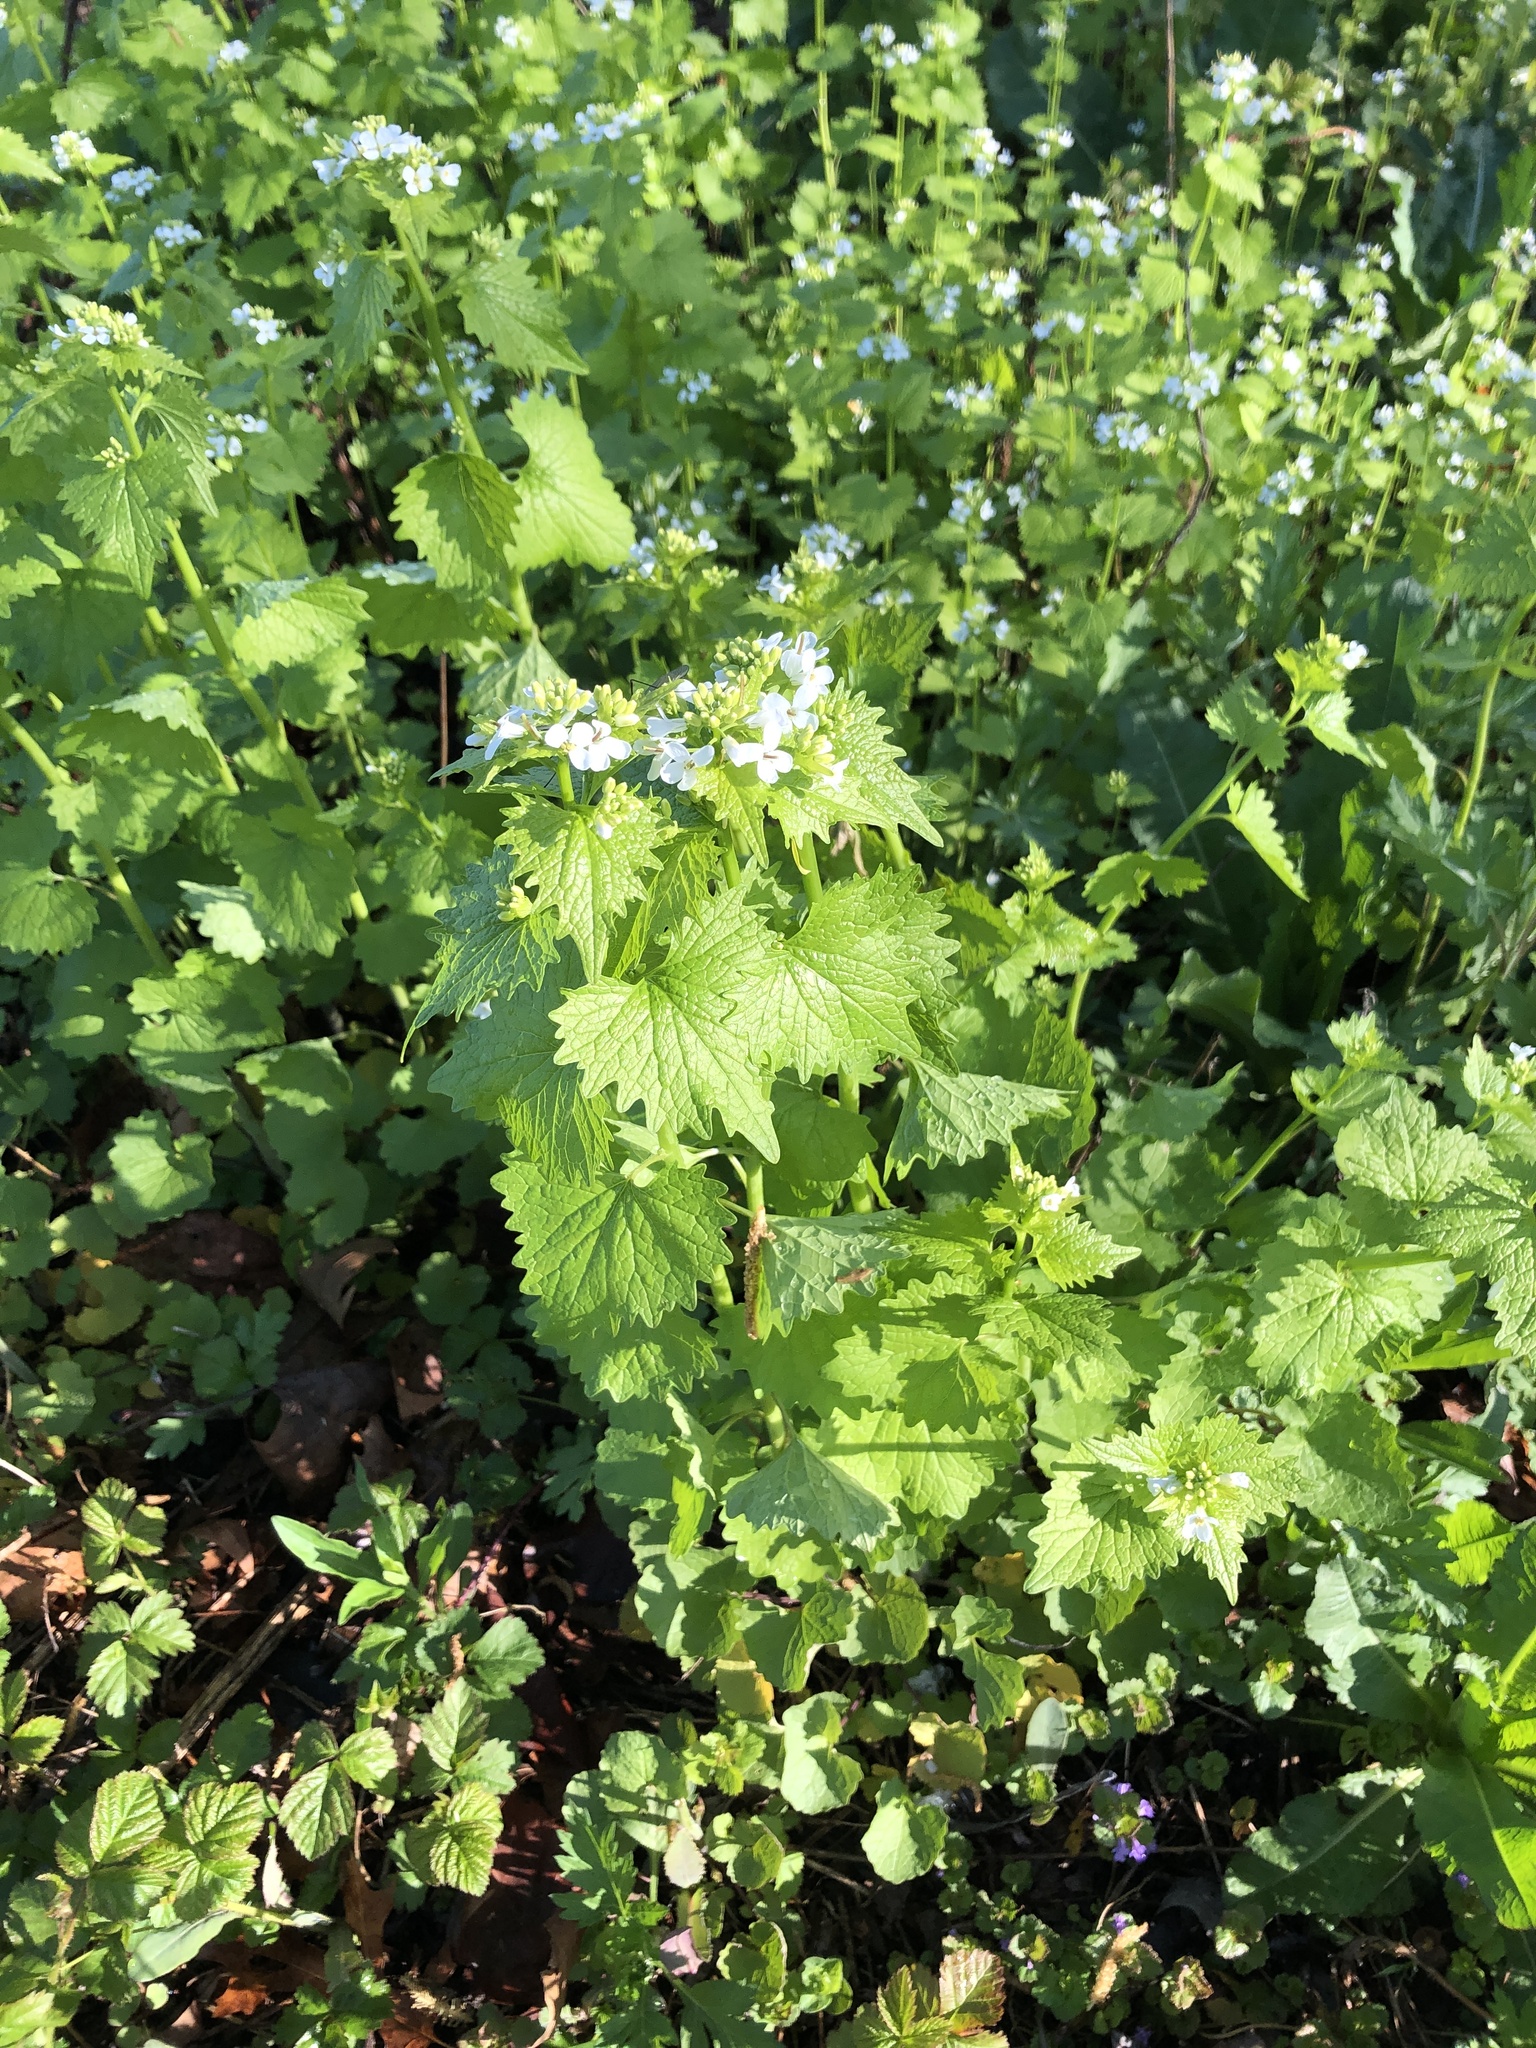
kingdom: Plantae
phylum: Tracheophyta
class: Magnoliopsida
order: Brassicales
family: Brassicaceae
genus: Alliaria
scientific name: Alliaria petiolata
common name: Garlic mustard
